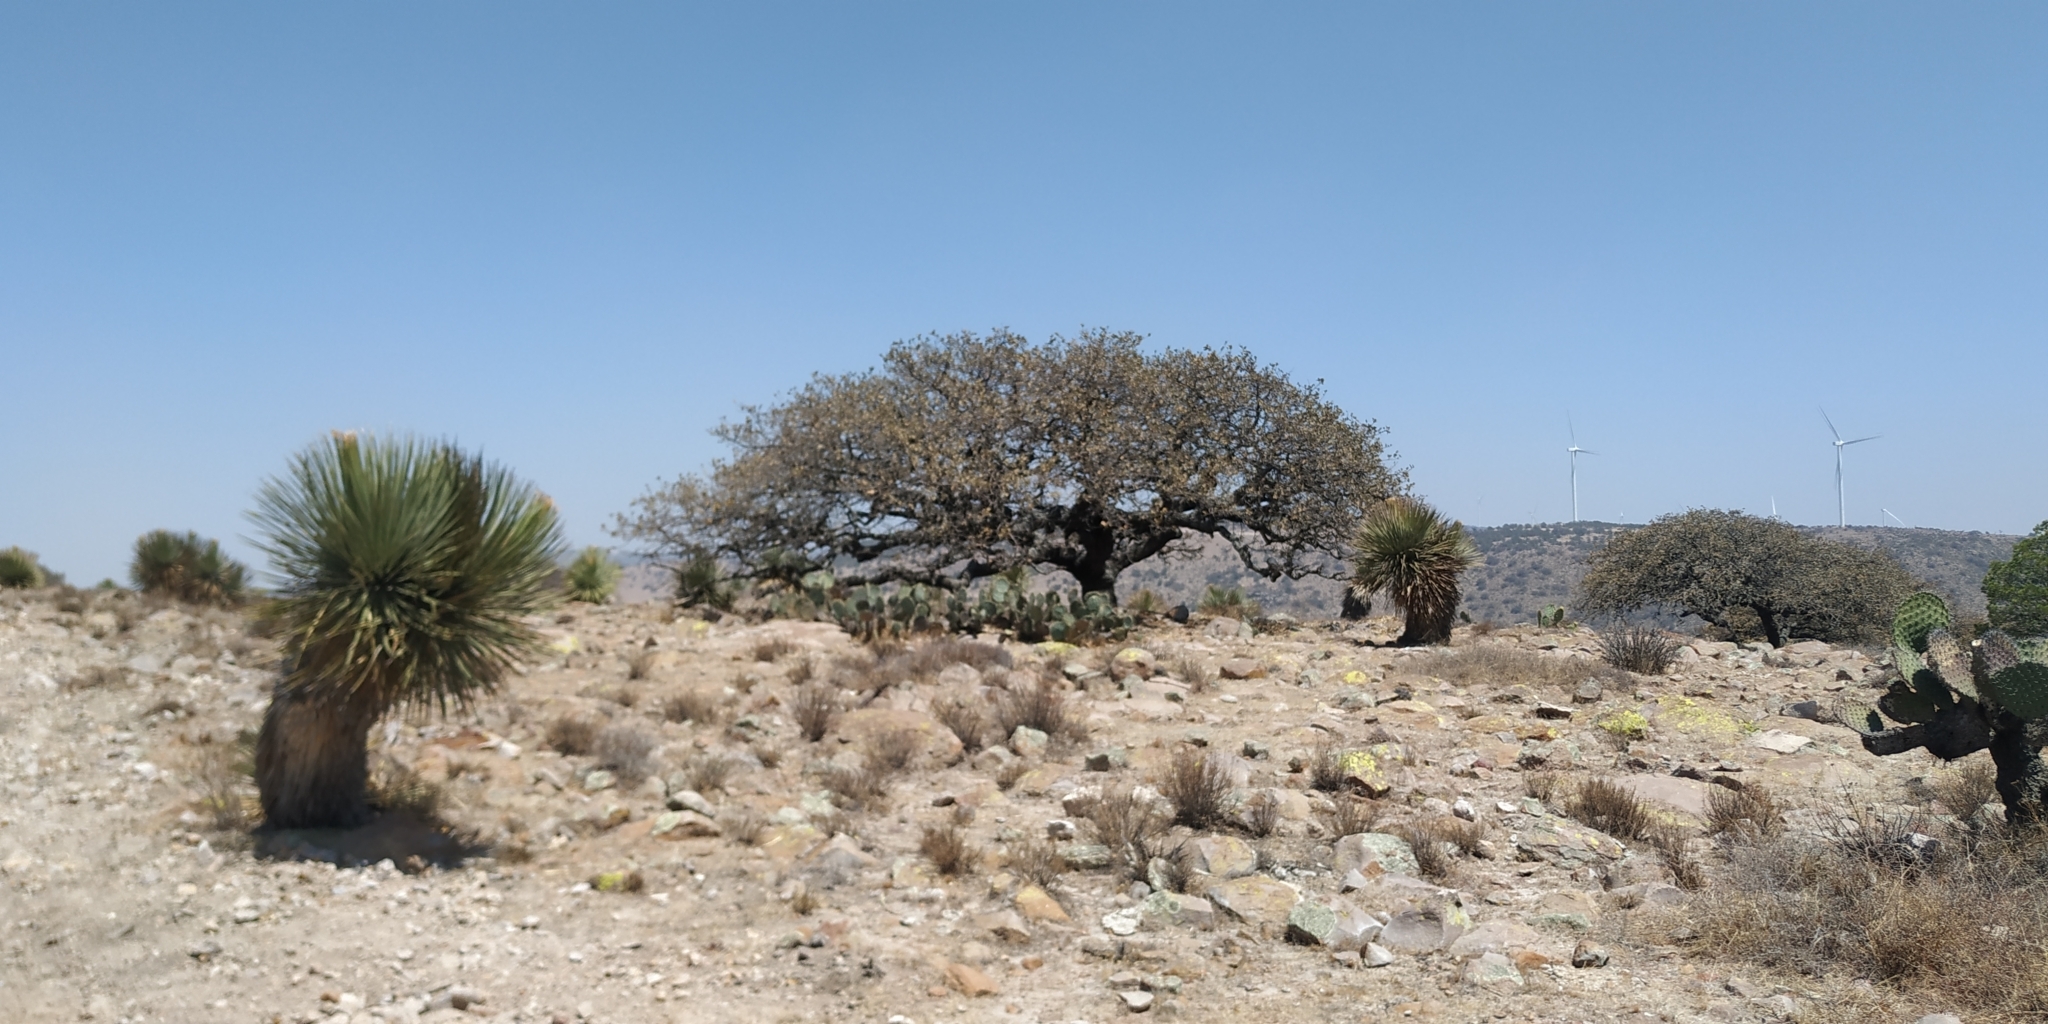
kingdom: Plantae
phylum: Tracheophyta
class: Magnoliopsida
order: Fagales
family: Fagaceae
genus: Quercus
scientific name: Quercus grisea
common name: Gray oak
